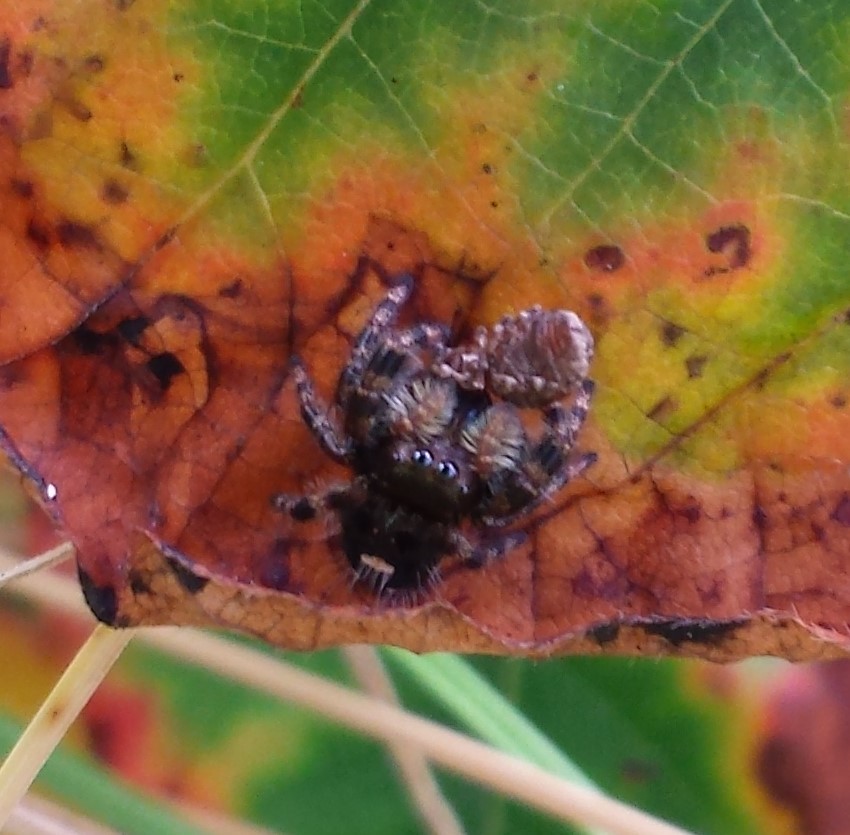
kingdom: Animalia
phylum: Arthropoda
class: Arachnida
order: Araneae
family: Salticidae
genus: Phidippus
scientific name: Phidippus audax
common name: Bold jumper
